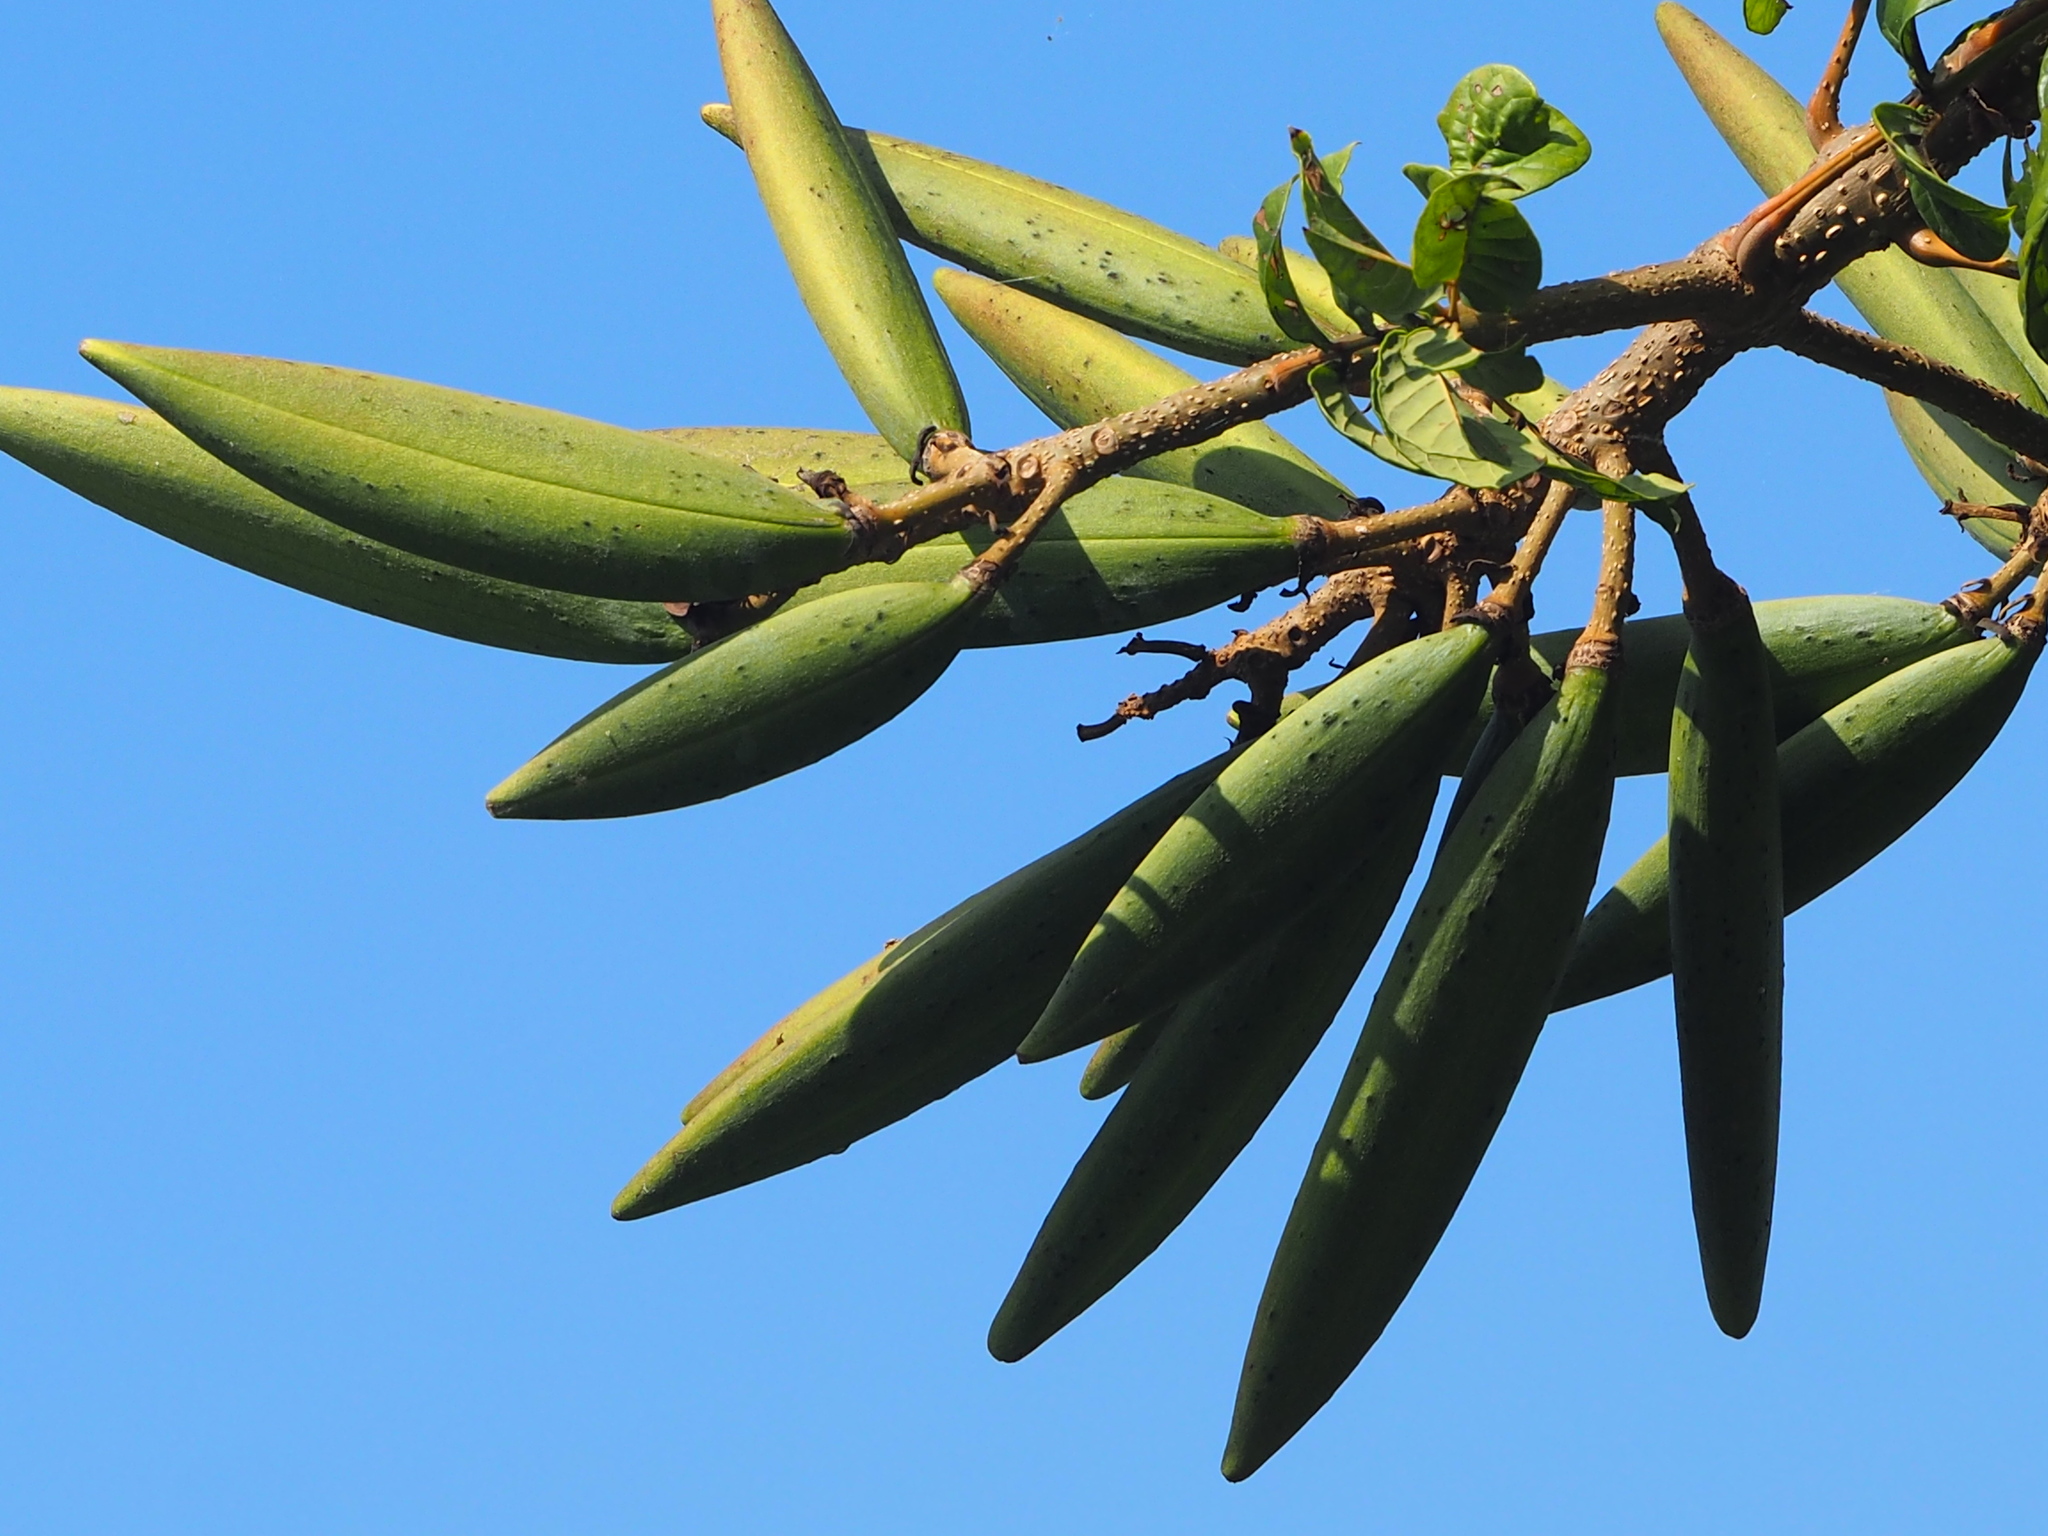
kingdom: Plantae
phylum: Tracheophyta
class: Magnoliopsida
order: Lamiales
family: Bignoniaceae
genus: Spathodea
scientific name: Spathodea campanulata
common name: African tuliptree
